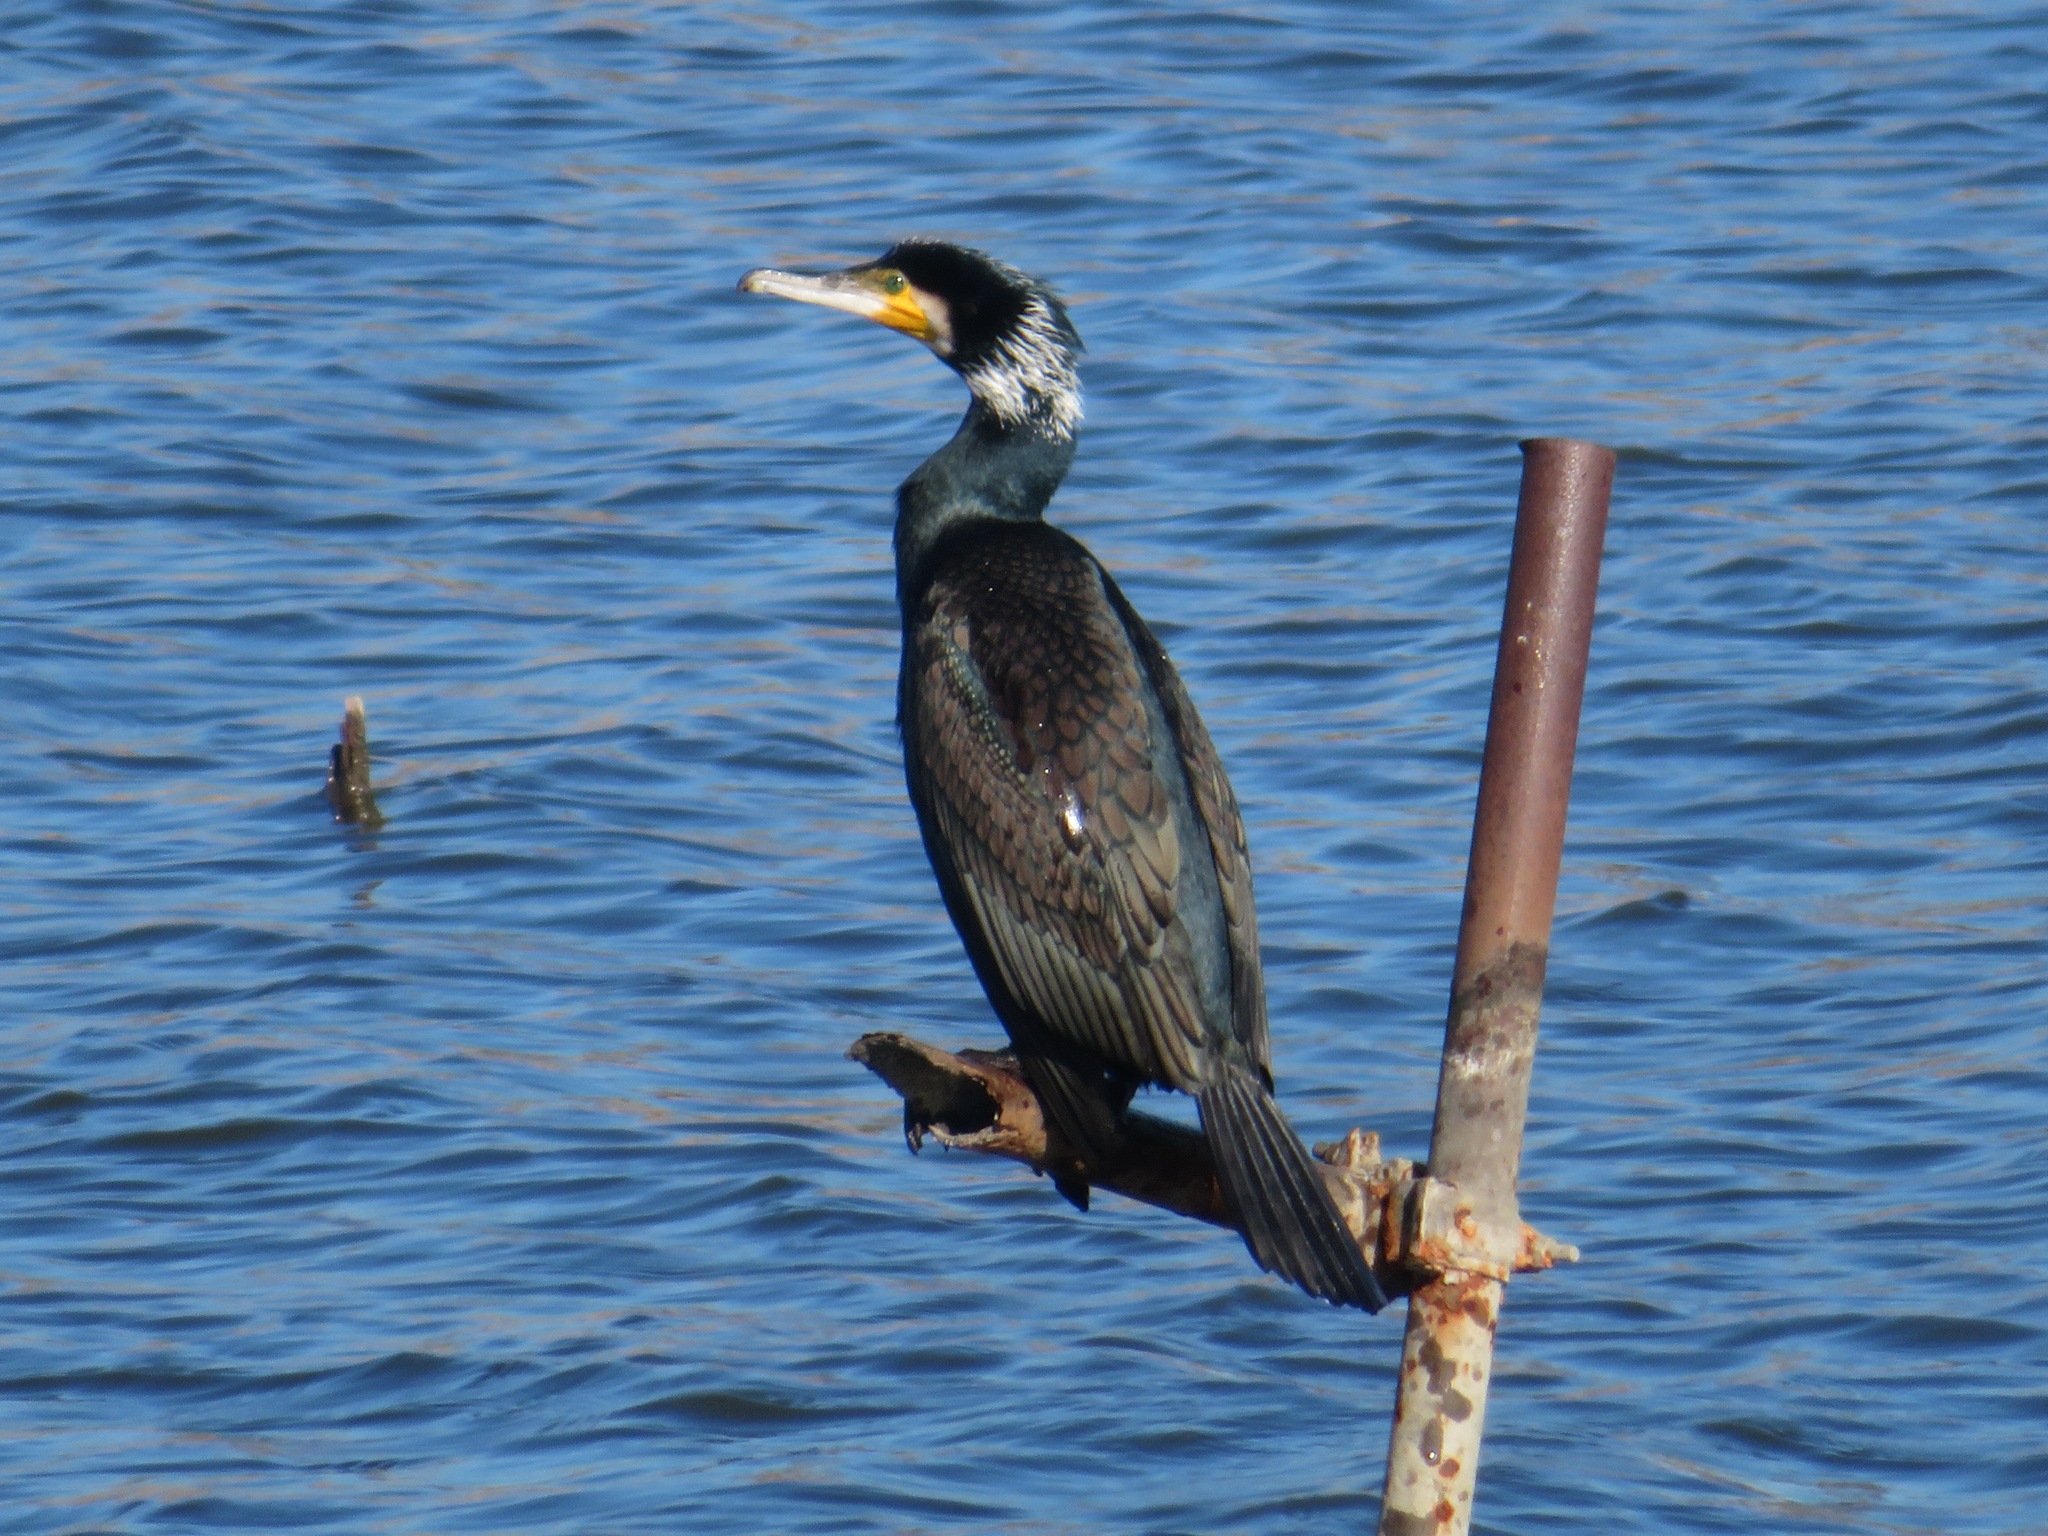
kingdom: Animalia
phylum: Chordata
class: Aves
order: Suliformes
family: Phalacrocoracidae
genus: Phalacrocorax
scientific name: Phalacrocorax carbo
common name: Great cormorant
